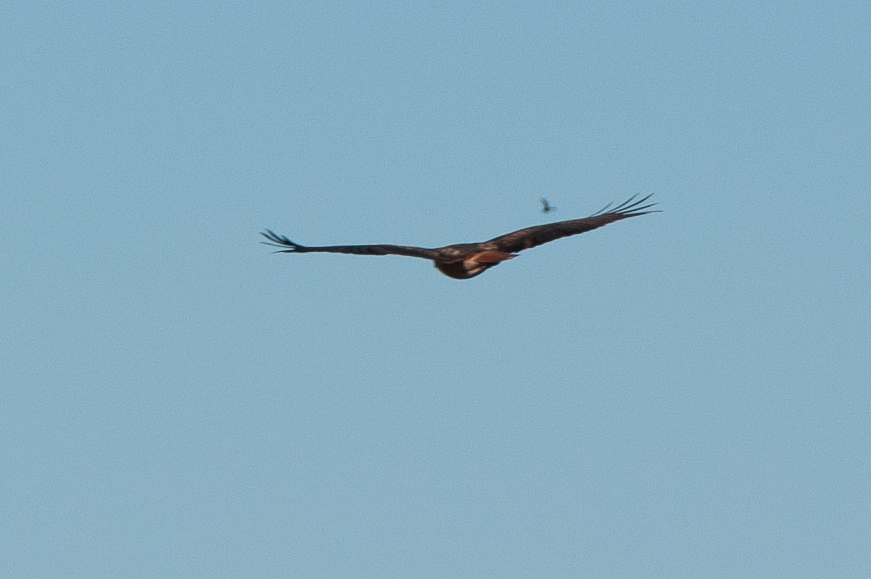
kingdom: Animalia
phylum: Chordata
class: Aves
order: Accipitriformes
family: Accipitridae
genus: Buteo
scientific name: Buteo jamaicensis
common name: Red-tailed hawk
